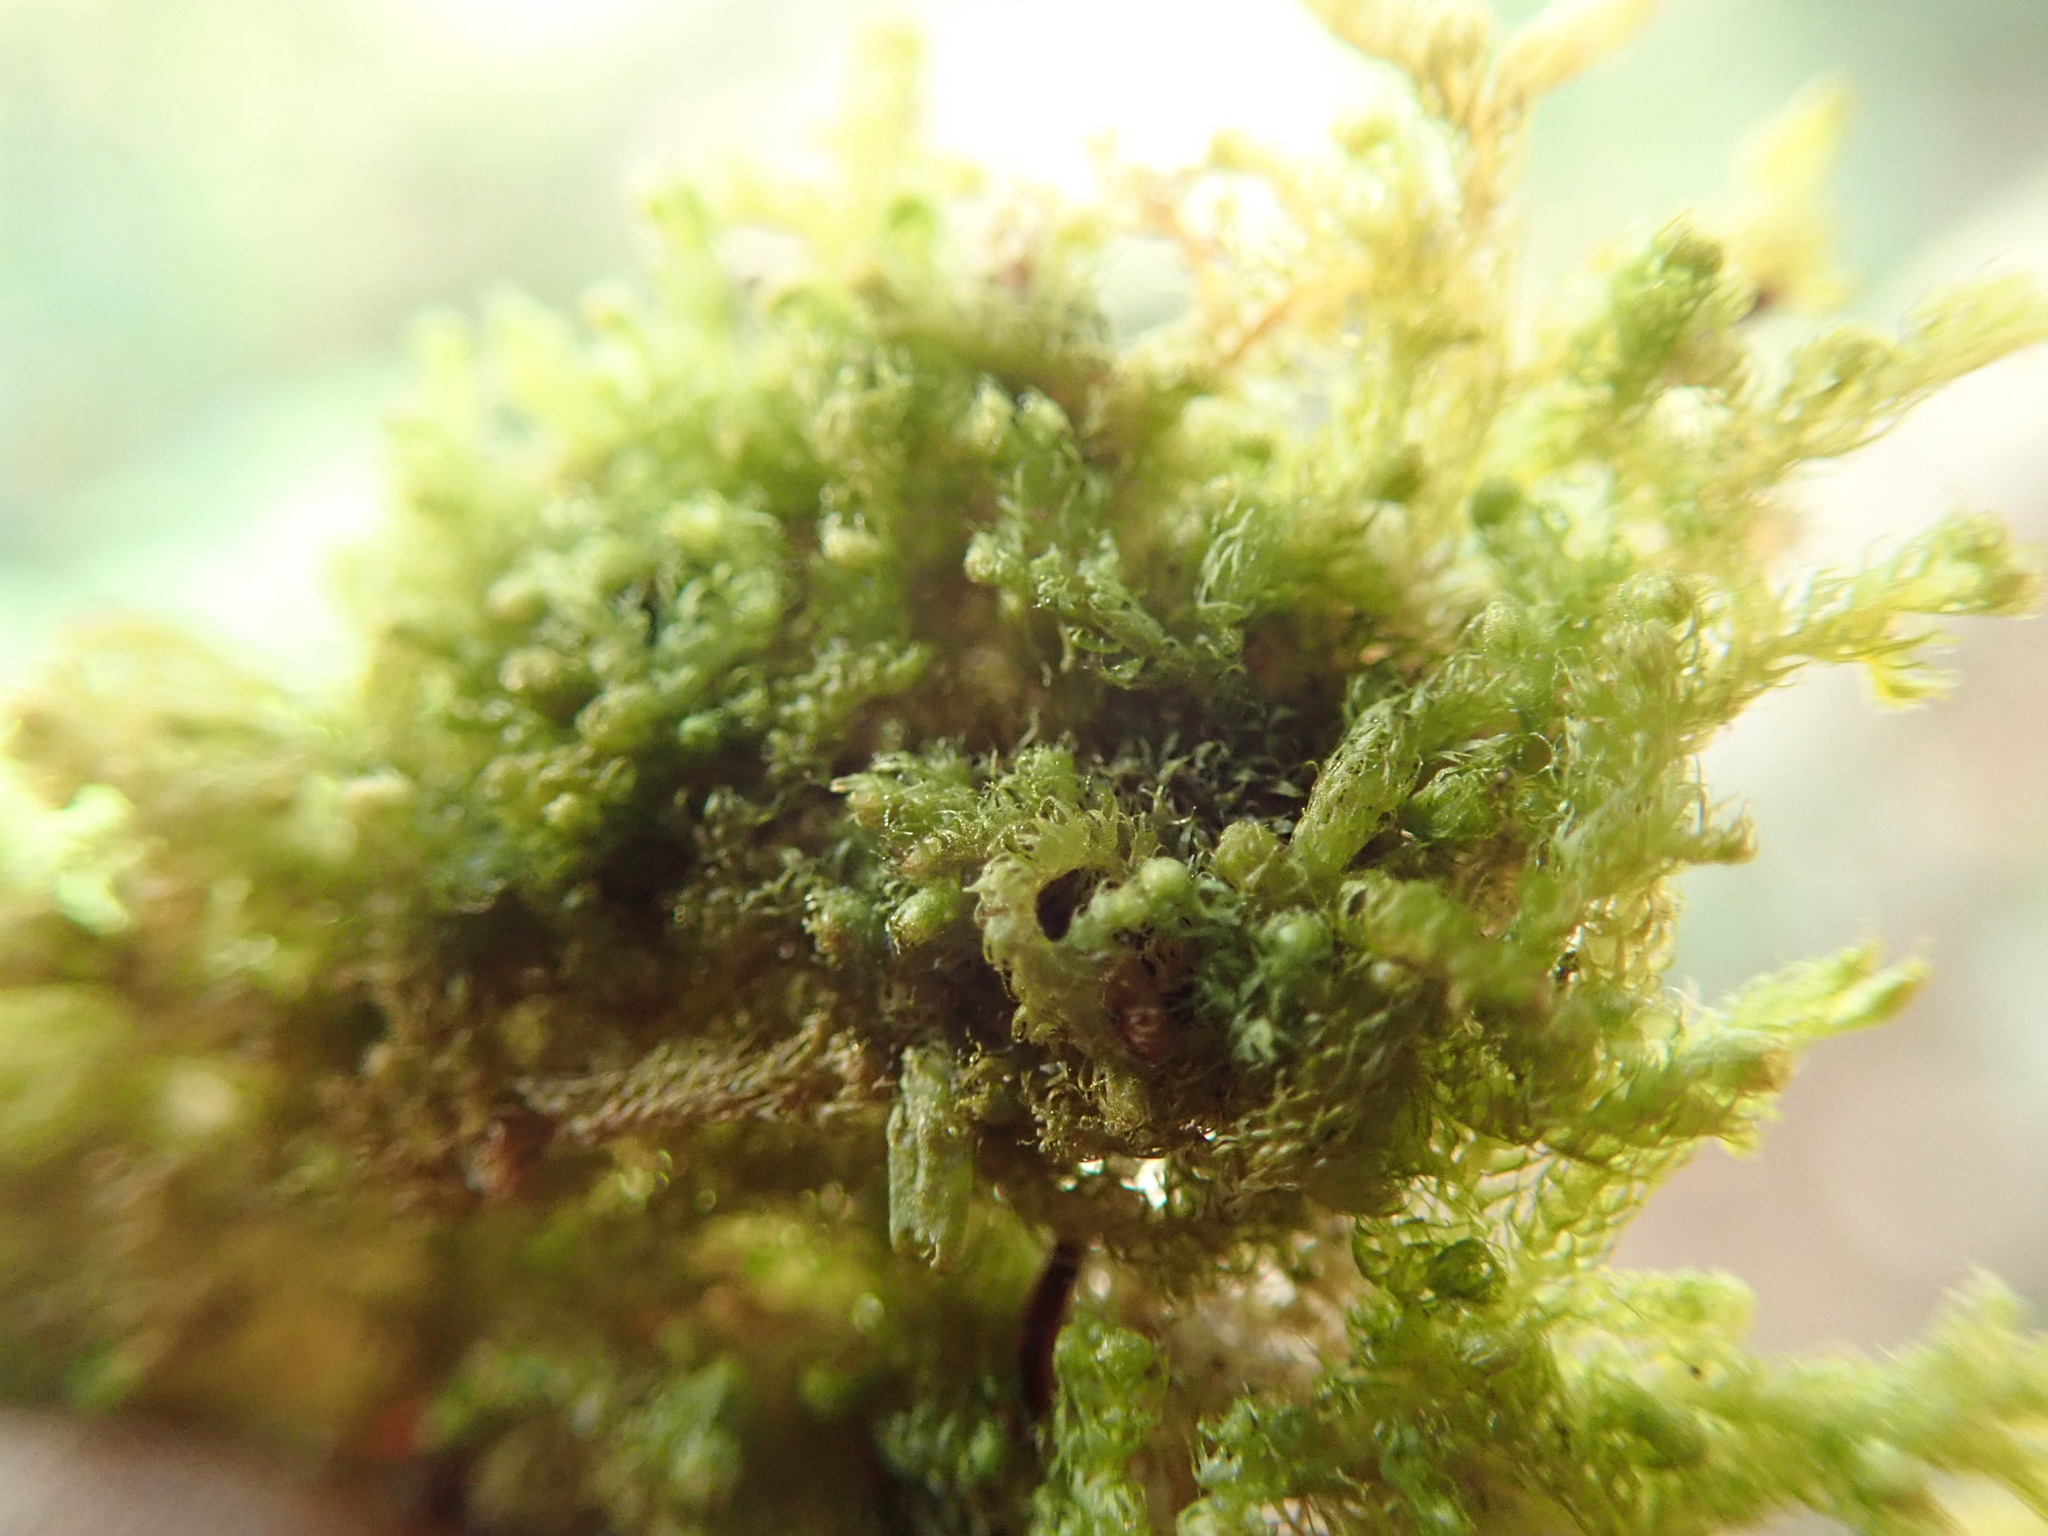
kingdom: Plantae
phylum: Marchantiophyta
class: Jungermanniopsida
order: Ptilidiales
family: Ptilidiaceae
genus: Ptilidium
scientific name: Ptilidium californicum
